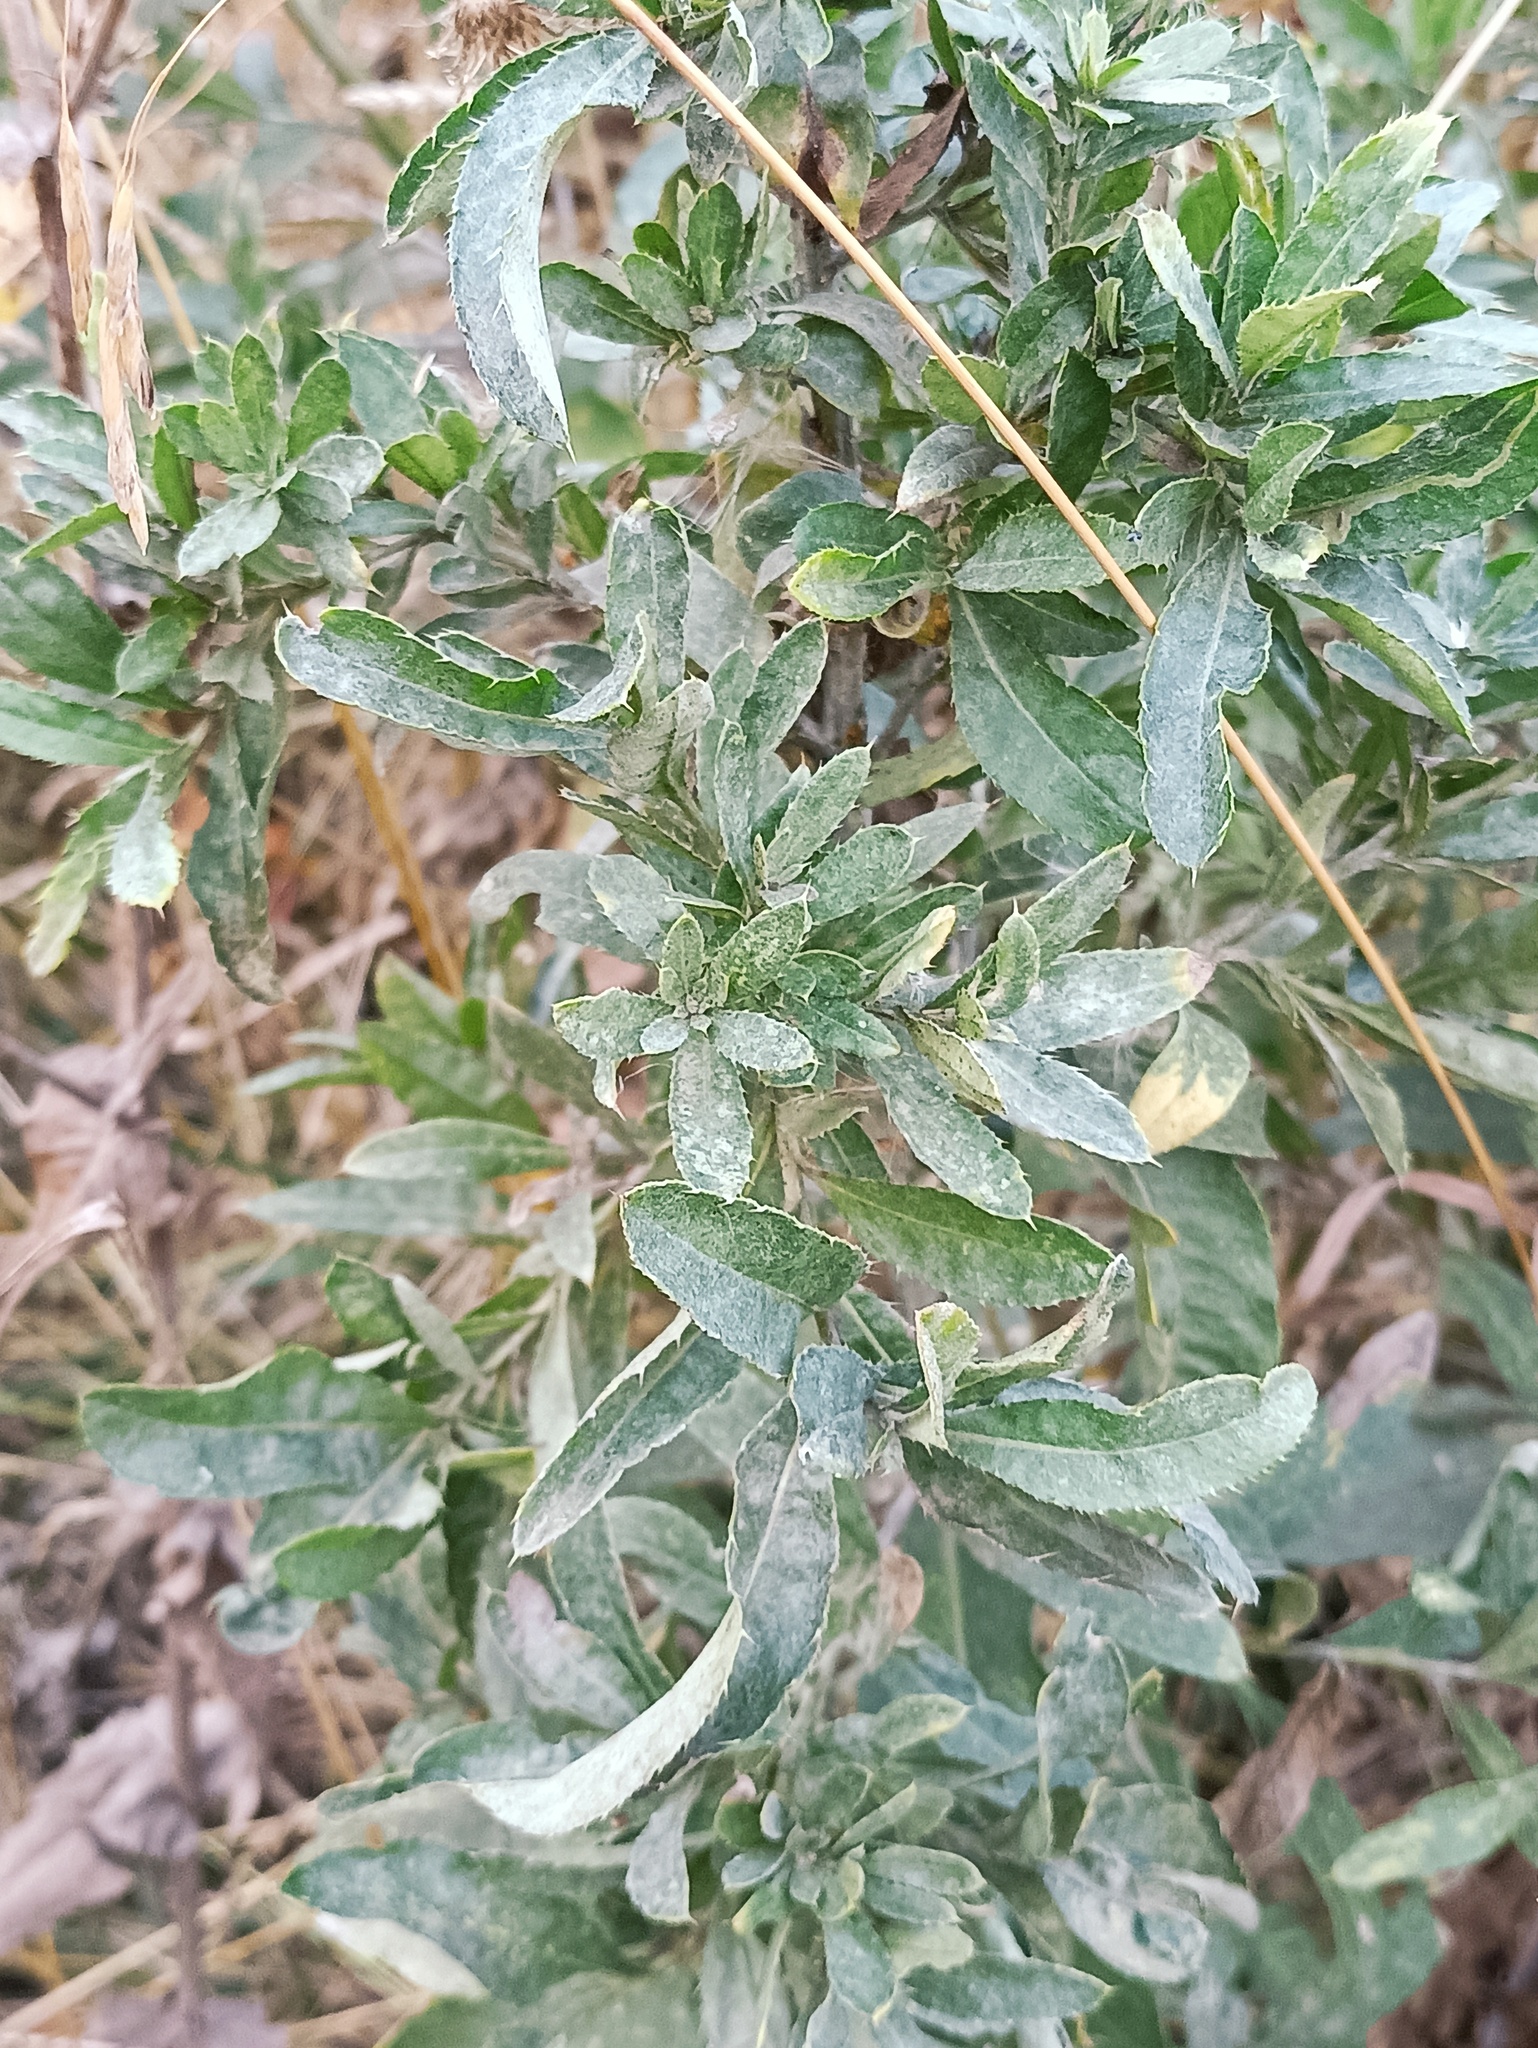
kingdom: Plantae
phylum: Tracheophyta
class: Magnoliopsida
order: Asterales
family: Asteraceae
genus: Cirsium
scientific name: Cirsium arvense
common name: Creeping thistle
